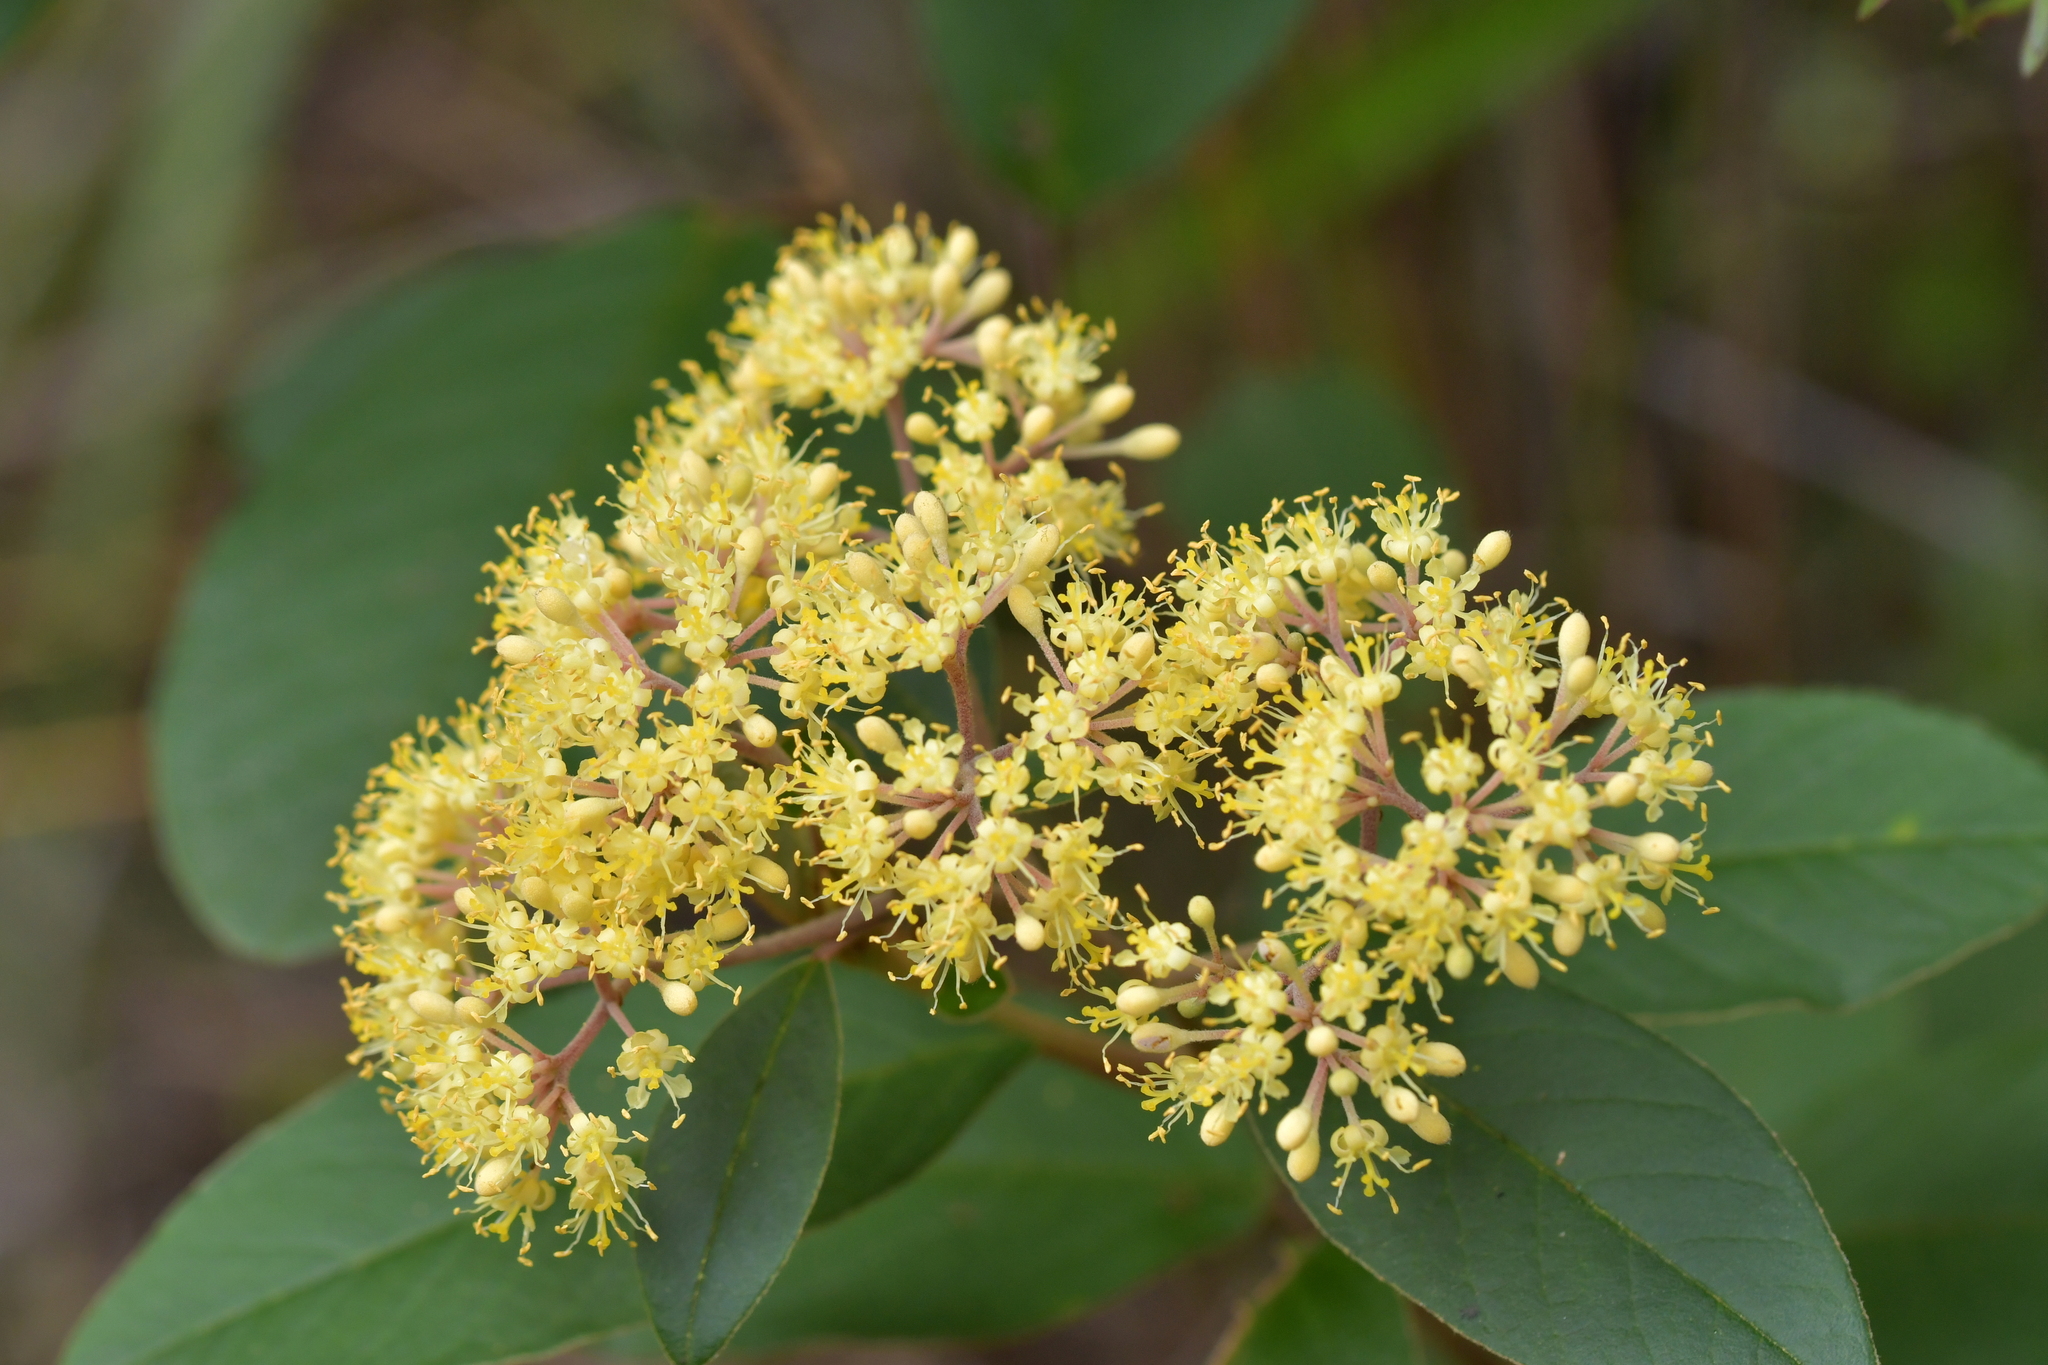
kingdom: Plantae
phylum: Tracheophyta
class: Magnoliopsida
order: Rosales
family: Rhamnaceae
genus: Pomaderris
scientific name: Pomaderris kumeraho
